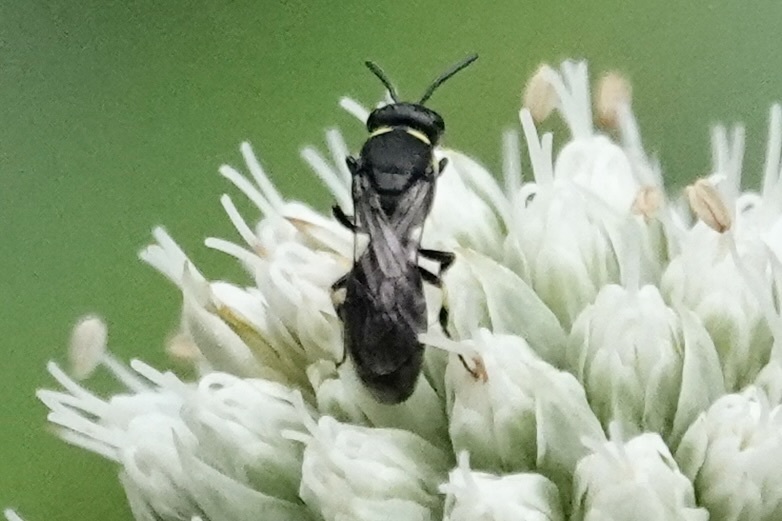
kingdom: Animalia
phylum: Arthropoda
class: Insecta
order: Hymenoptera
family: Colletidae
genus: Hylaeus
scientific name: Hylaeus modestus
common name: Yellow-faced bee
